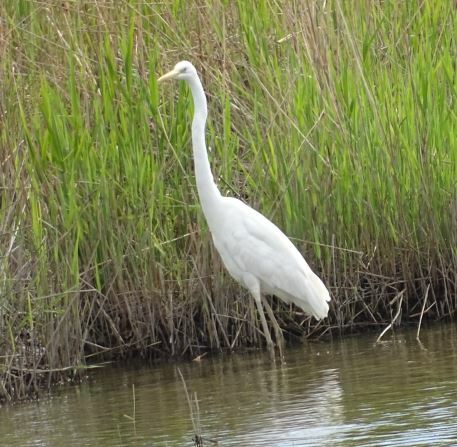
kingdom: Animalia
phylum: Chordata
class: Aves
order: Pelecaniformes
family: Ardeidae
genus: Ardea
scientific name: Ardea alba
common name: Great egret
